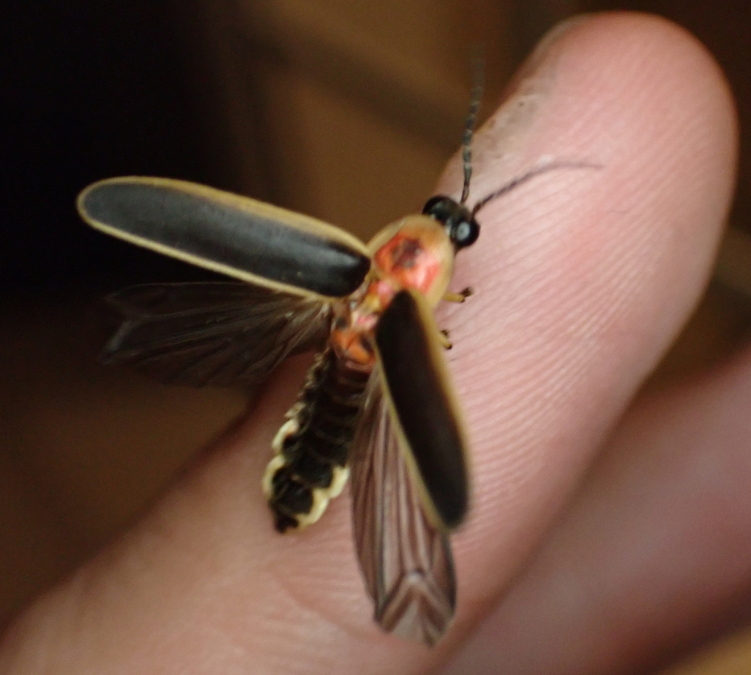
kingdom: Animalia
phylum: Arthropoda
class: Insecta
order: Coleoptera
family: Lampyridae
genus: Photinus
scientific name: Photinus pyralis
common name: Big dipper firefly
